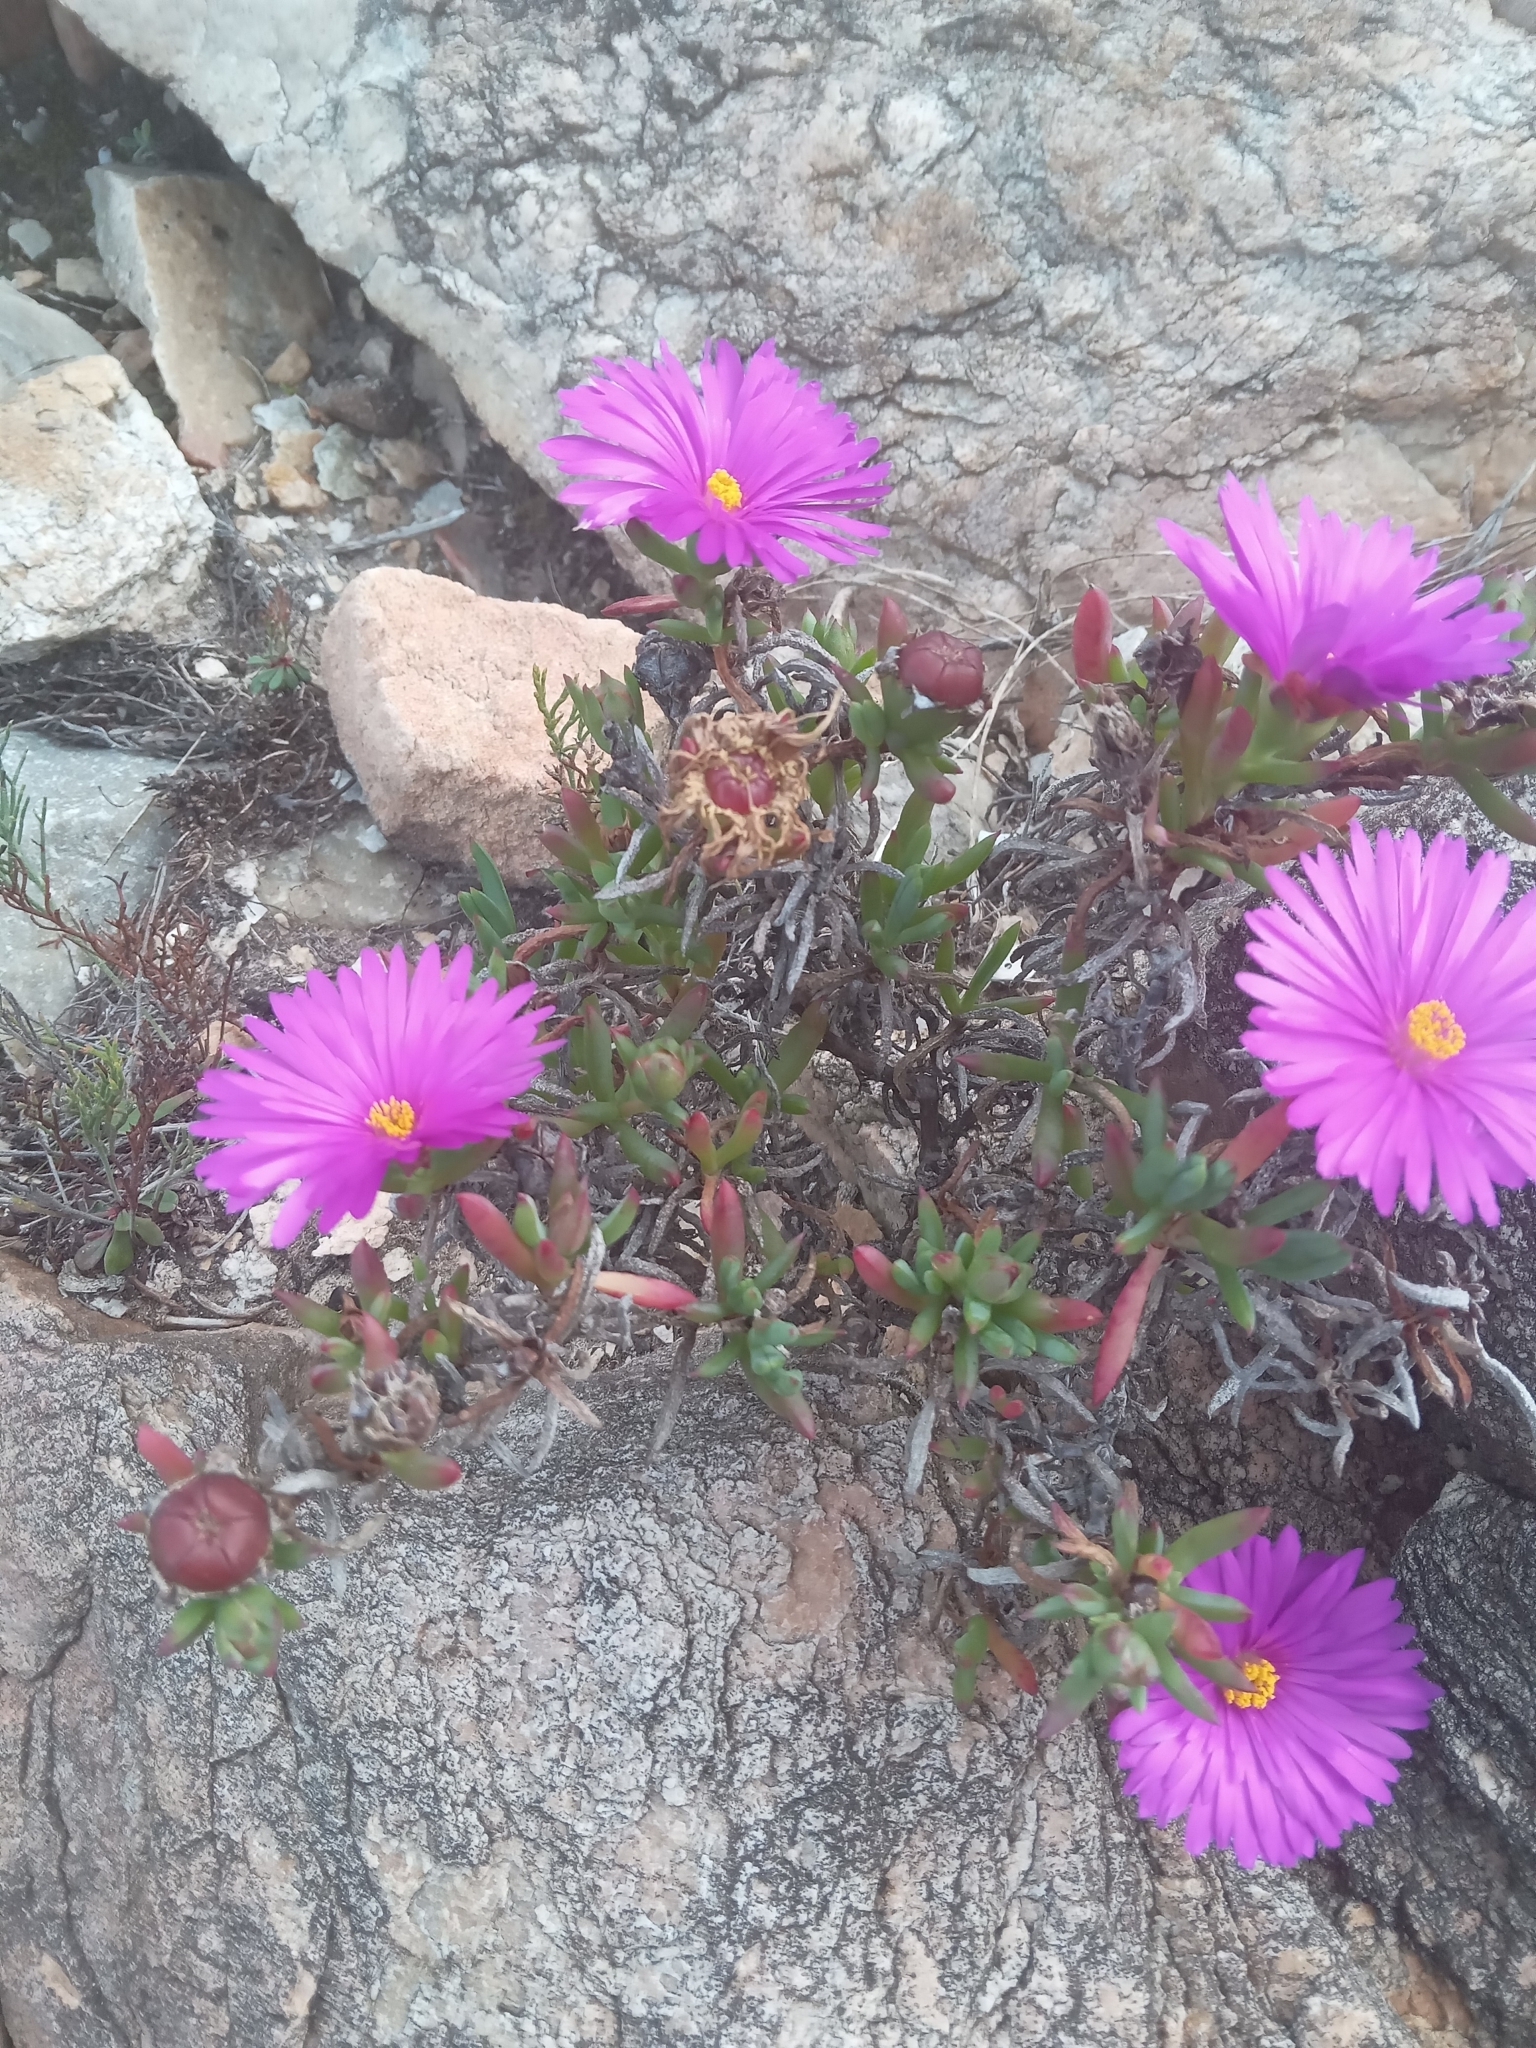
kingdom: Plantae
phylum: Tracheophyta
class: Magnoliopsida
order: Caryophyllales
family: Aizoaceae
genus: Lampranthus
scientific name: Lampranthus ceriseus
